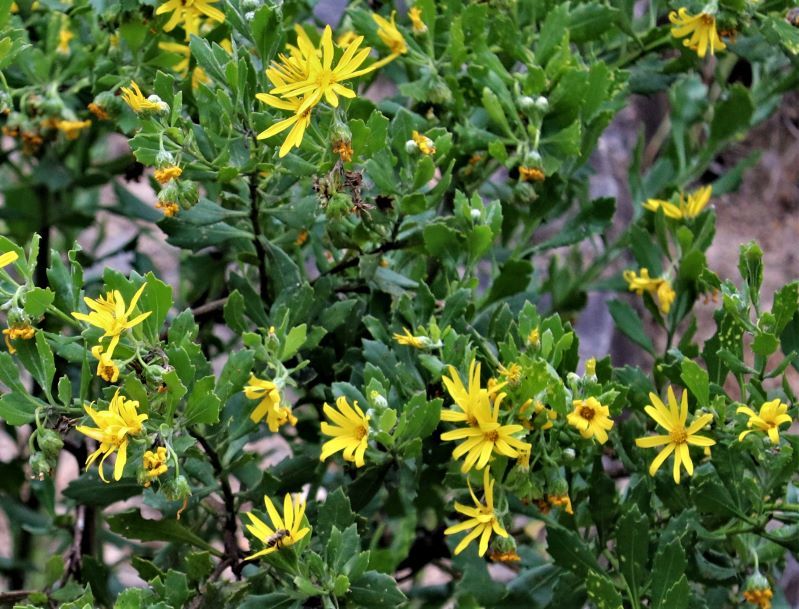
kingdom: Plantae
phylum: Tracheophyta
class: Magnoliopsida
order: Asterales
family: Asteraceae
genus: Osteospermum
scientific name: Osteospermum moniliferum
